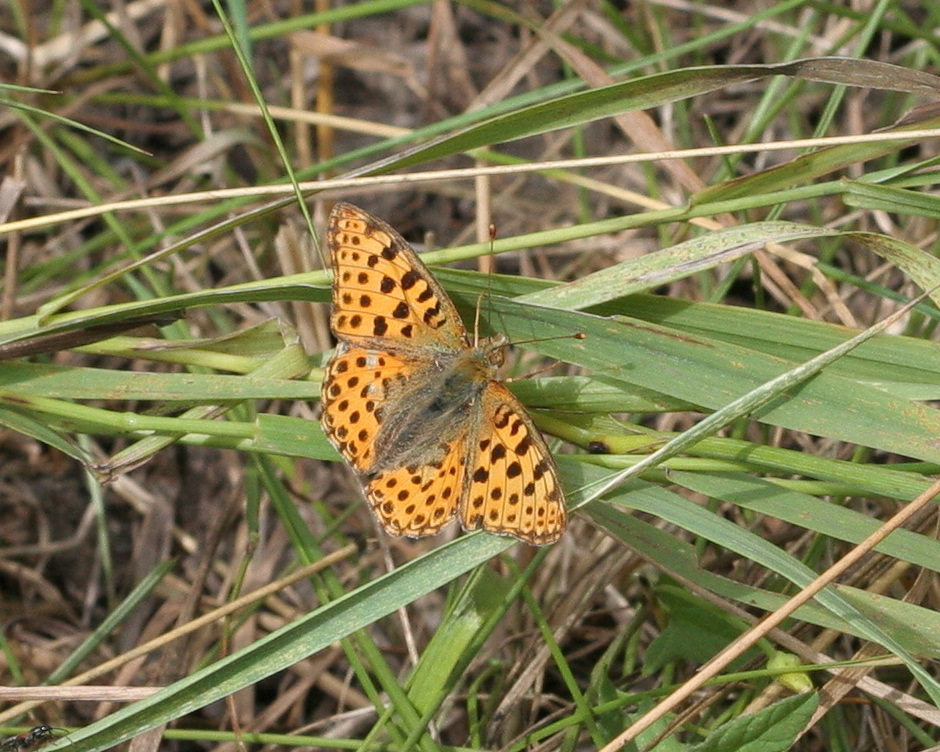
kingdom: Animalia
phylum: Arthropoda
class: Insecta
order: Lepidoptera
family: Nymphalidae
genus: Issoria
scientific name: Issoria lathonia
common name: Queen of spain fritillary
